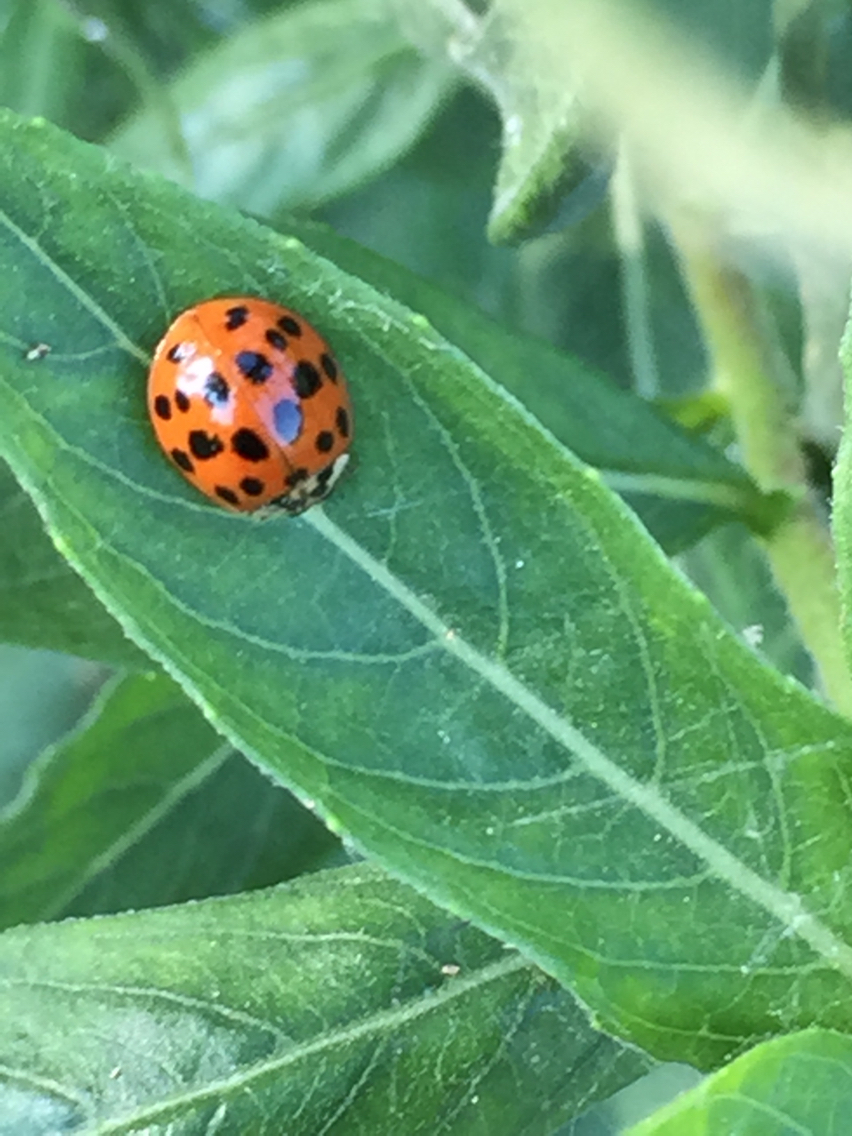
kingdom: Animalia
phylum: Arthropoda
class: Insecta
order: Coleoptera
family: Coccinellidae
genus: Harmonia
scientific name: Harmonia axyridis
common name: Harlequin ladybird
